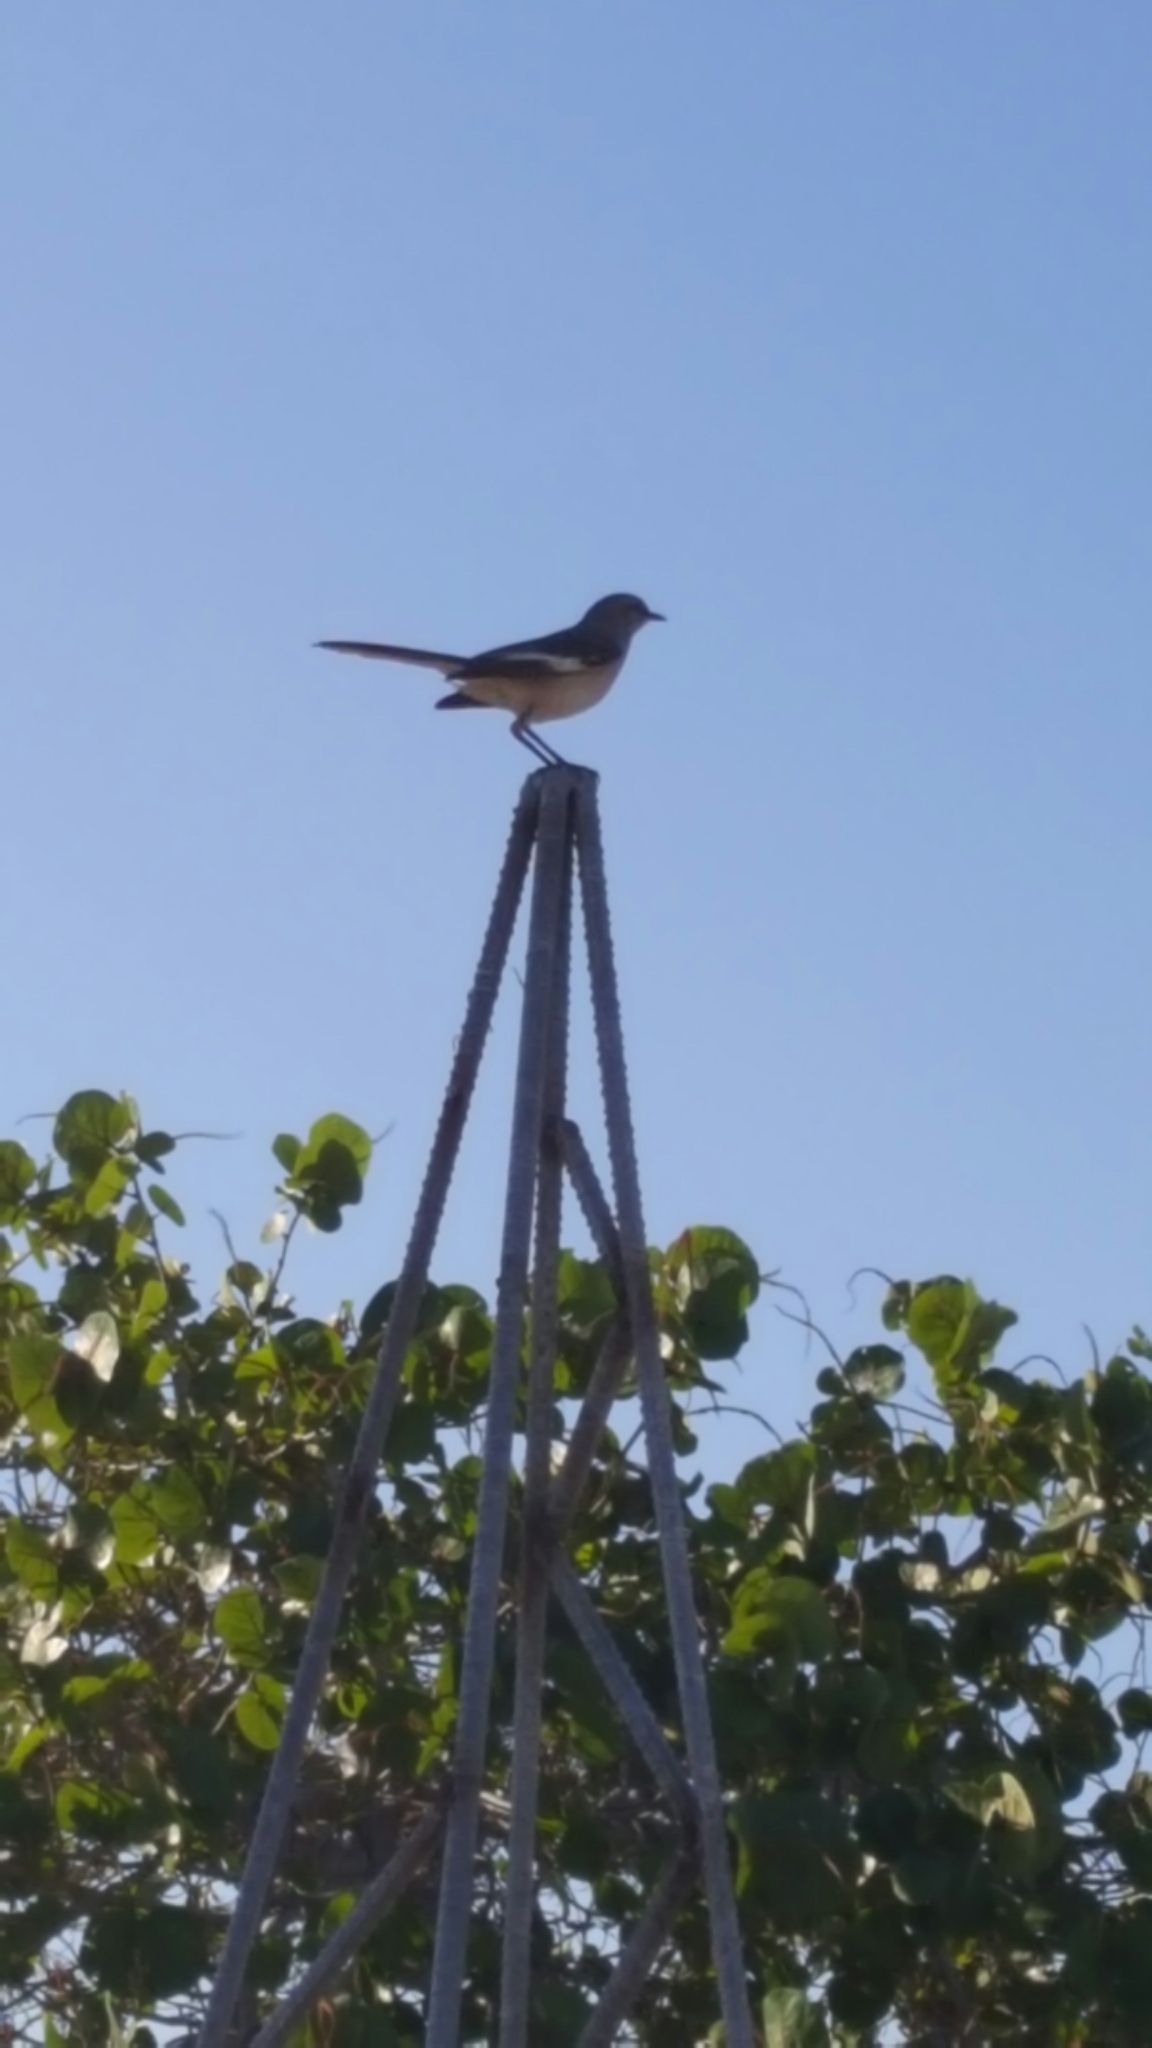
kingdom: Animalia
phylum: Chordata
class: Aves
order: Passeriformes
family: Mimidae
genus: Mimus
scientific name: Mimus polyglottos
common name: Northern mockingbird
